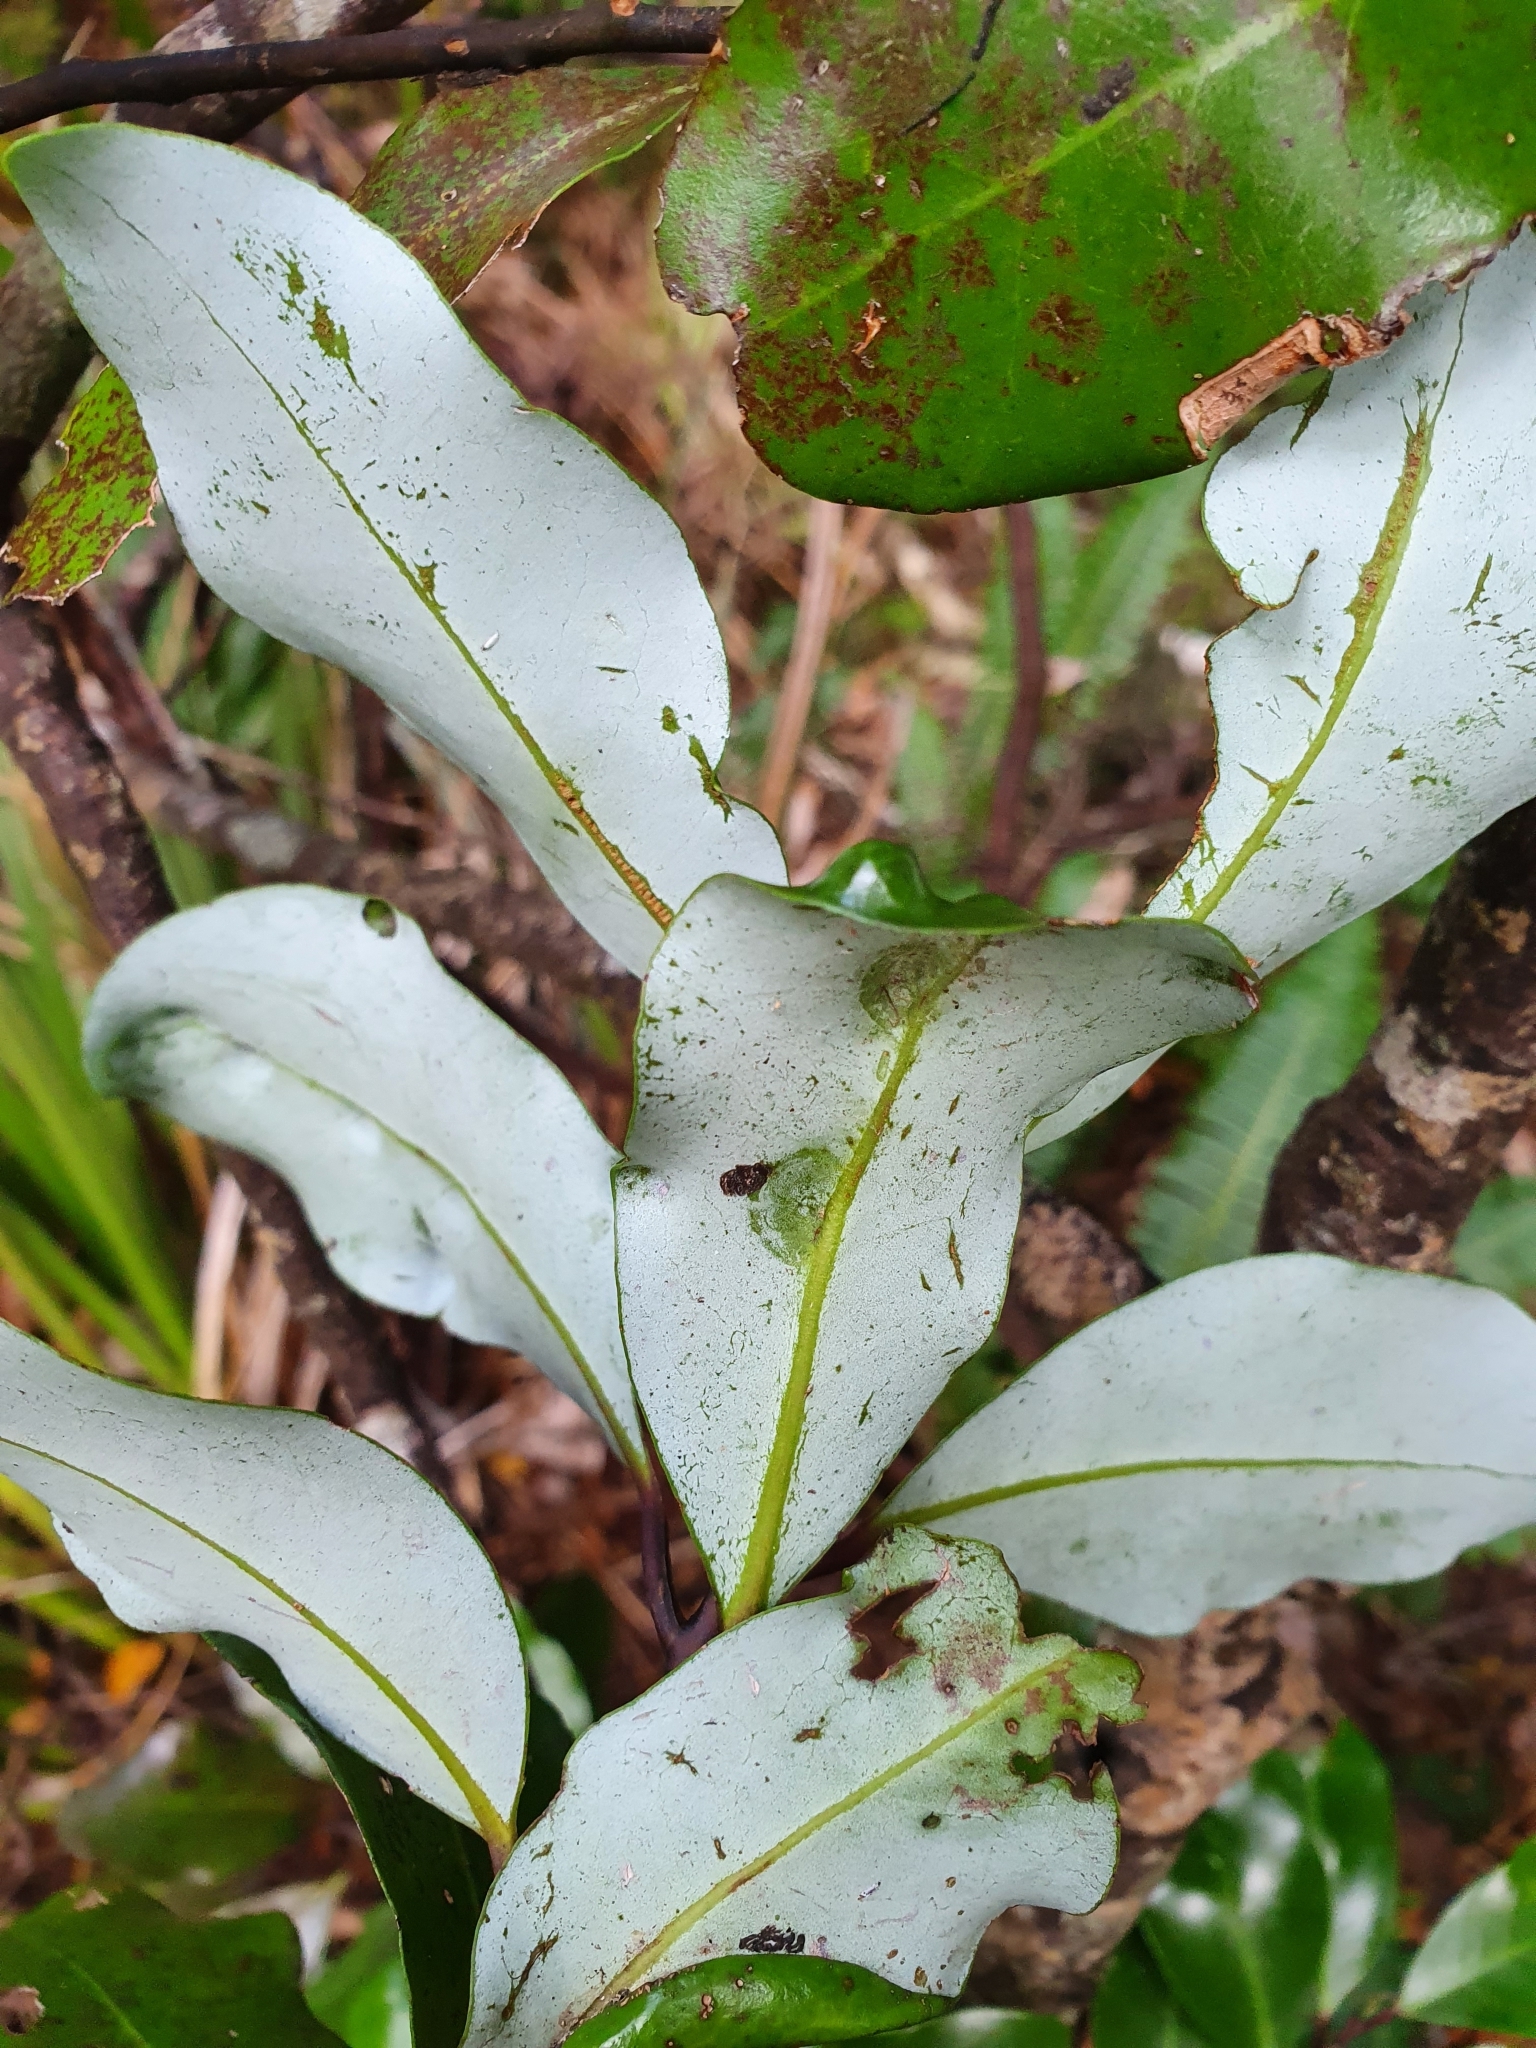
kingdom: Plantae
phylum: Tracheophyta
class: Magnoliopsida
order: Canellales
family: Winteraceae
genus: Pseudowintera
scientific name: Pseudowintera axillaris
